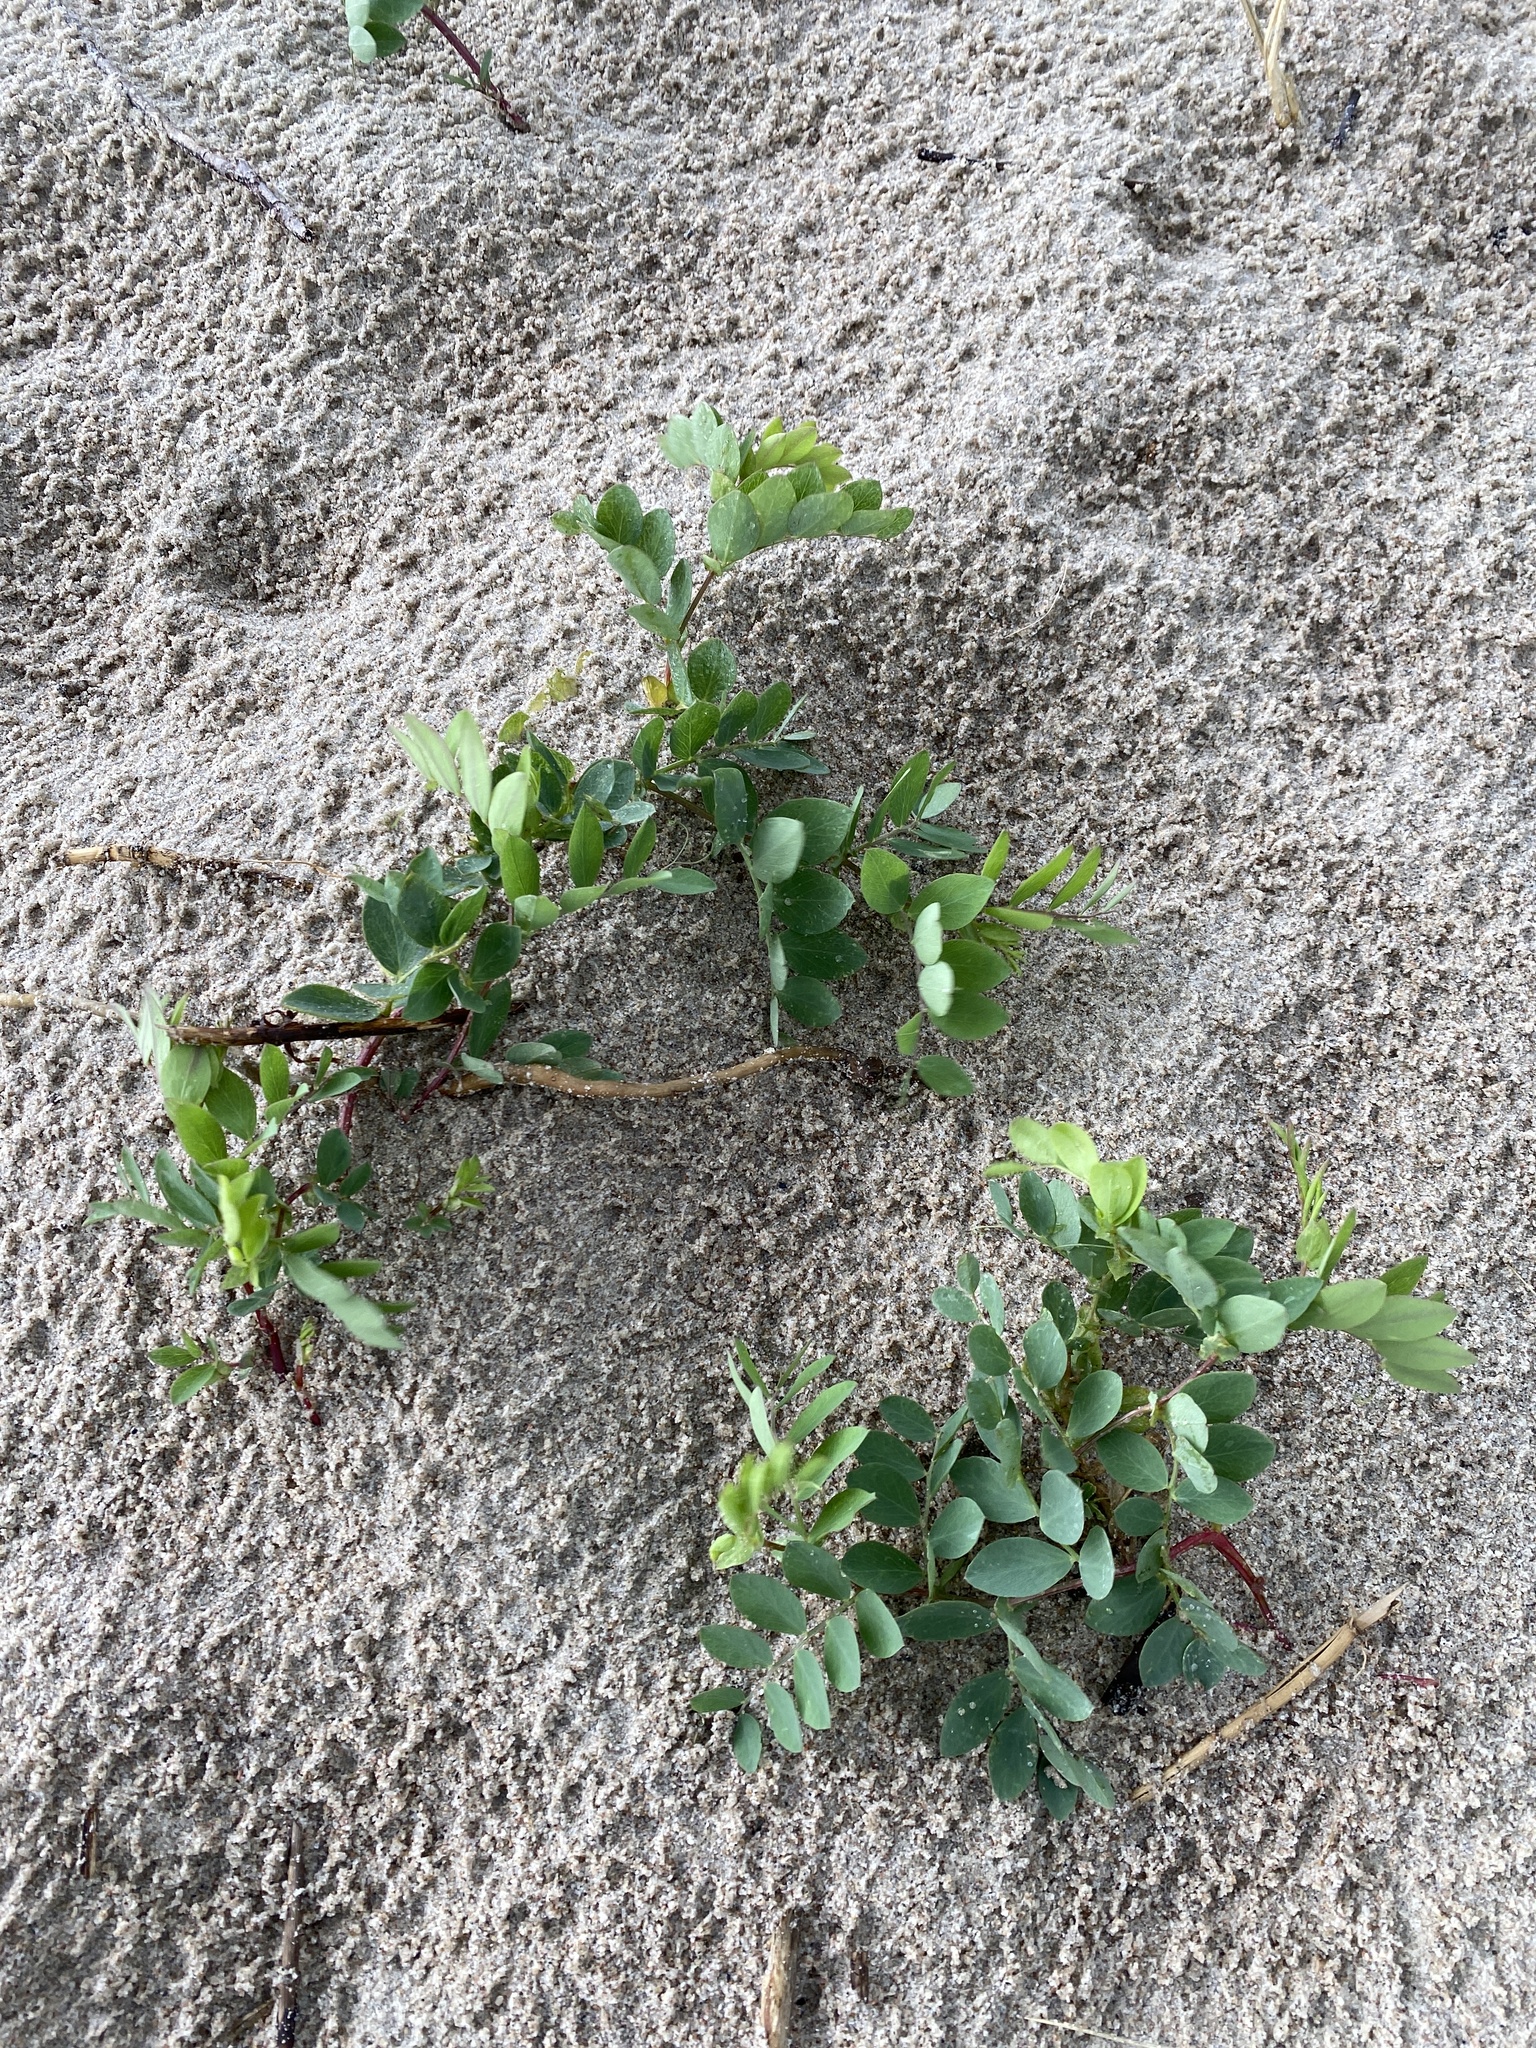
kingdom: Plantae
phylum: Tracheophyta
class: Magnoliopsida
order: Fabales
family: Fabaceae
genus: Lathyrus
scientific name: Lathyrus japonicus
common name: Sea pea
